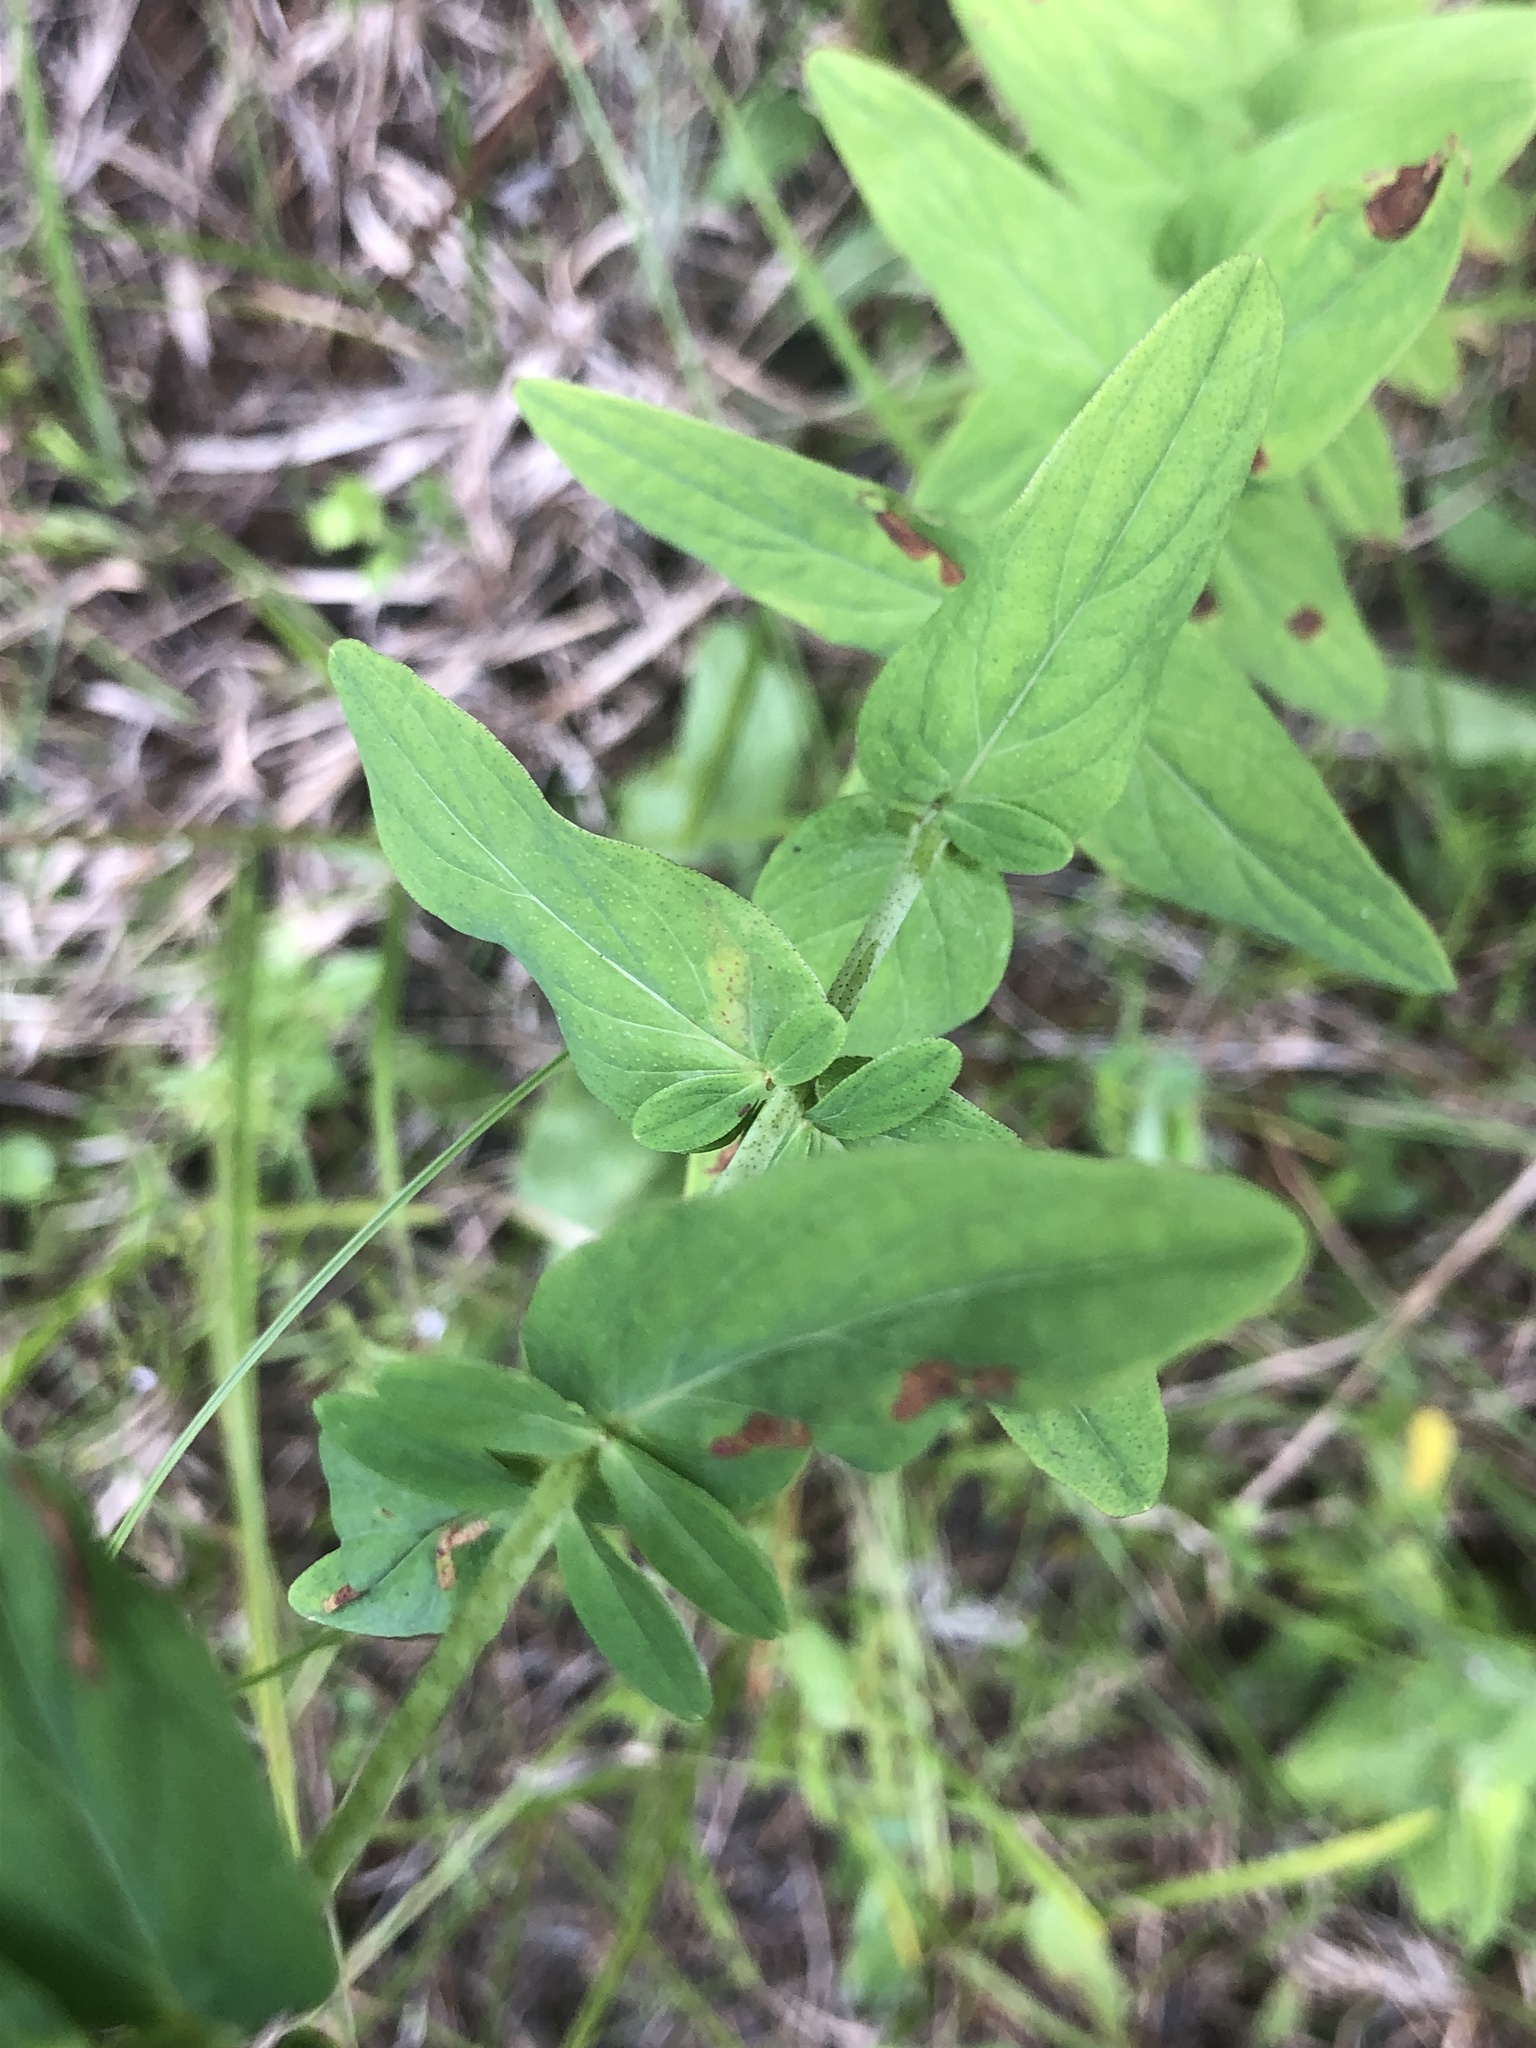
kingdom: Plantae
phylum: Tracheophyta
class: Magnoliopsida
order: Malpighiales
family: Hypericaceae
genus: Hypericum
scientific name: Hypericum punctatum
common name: Spotted st. john's-wort
